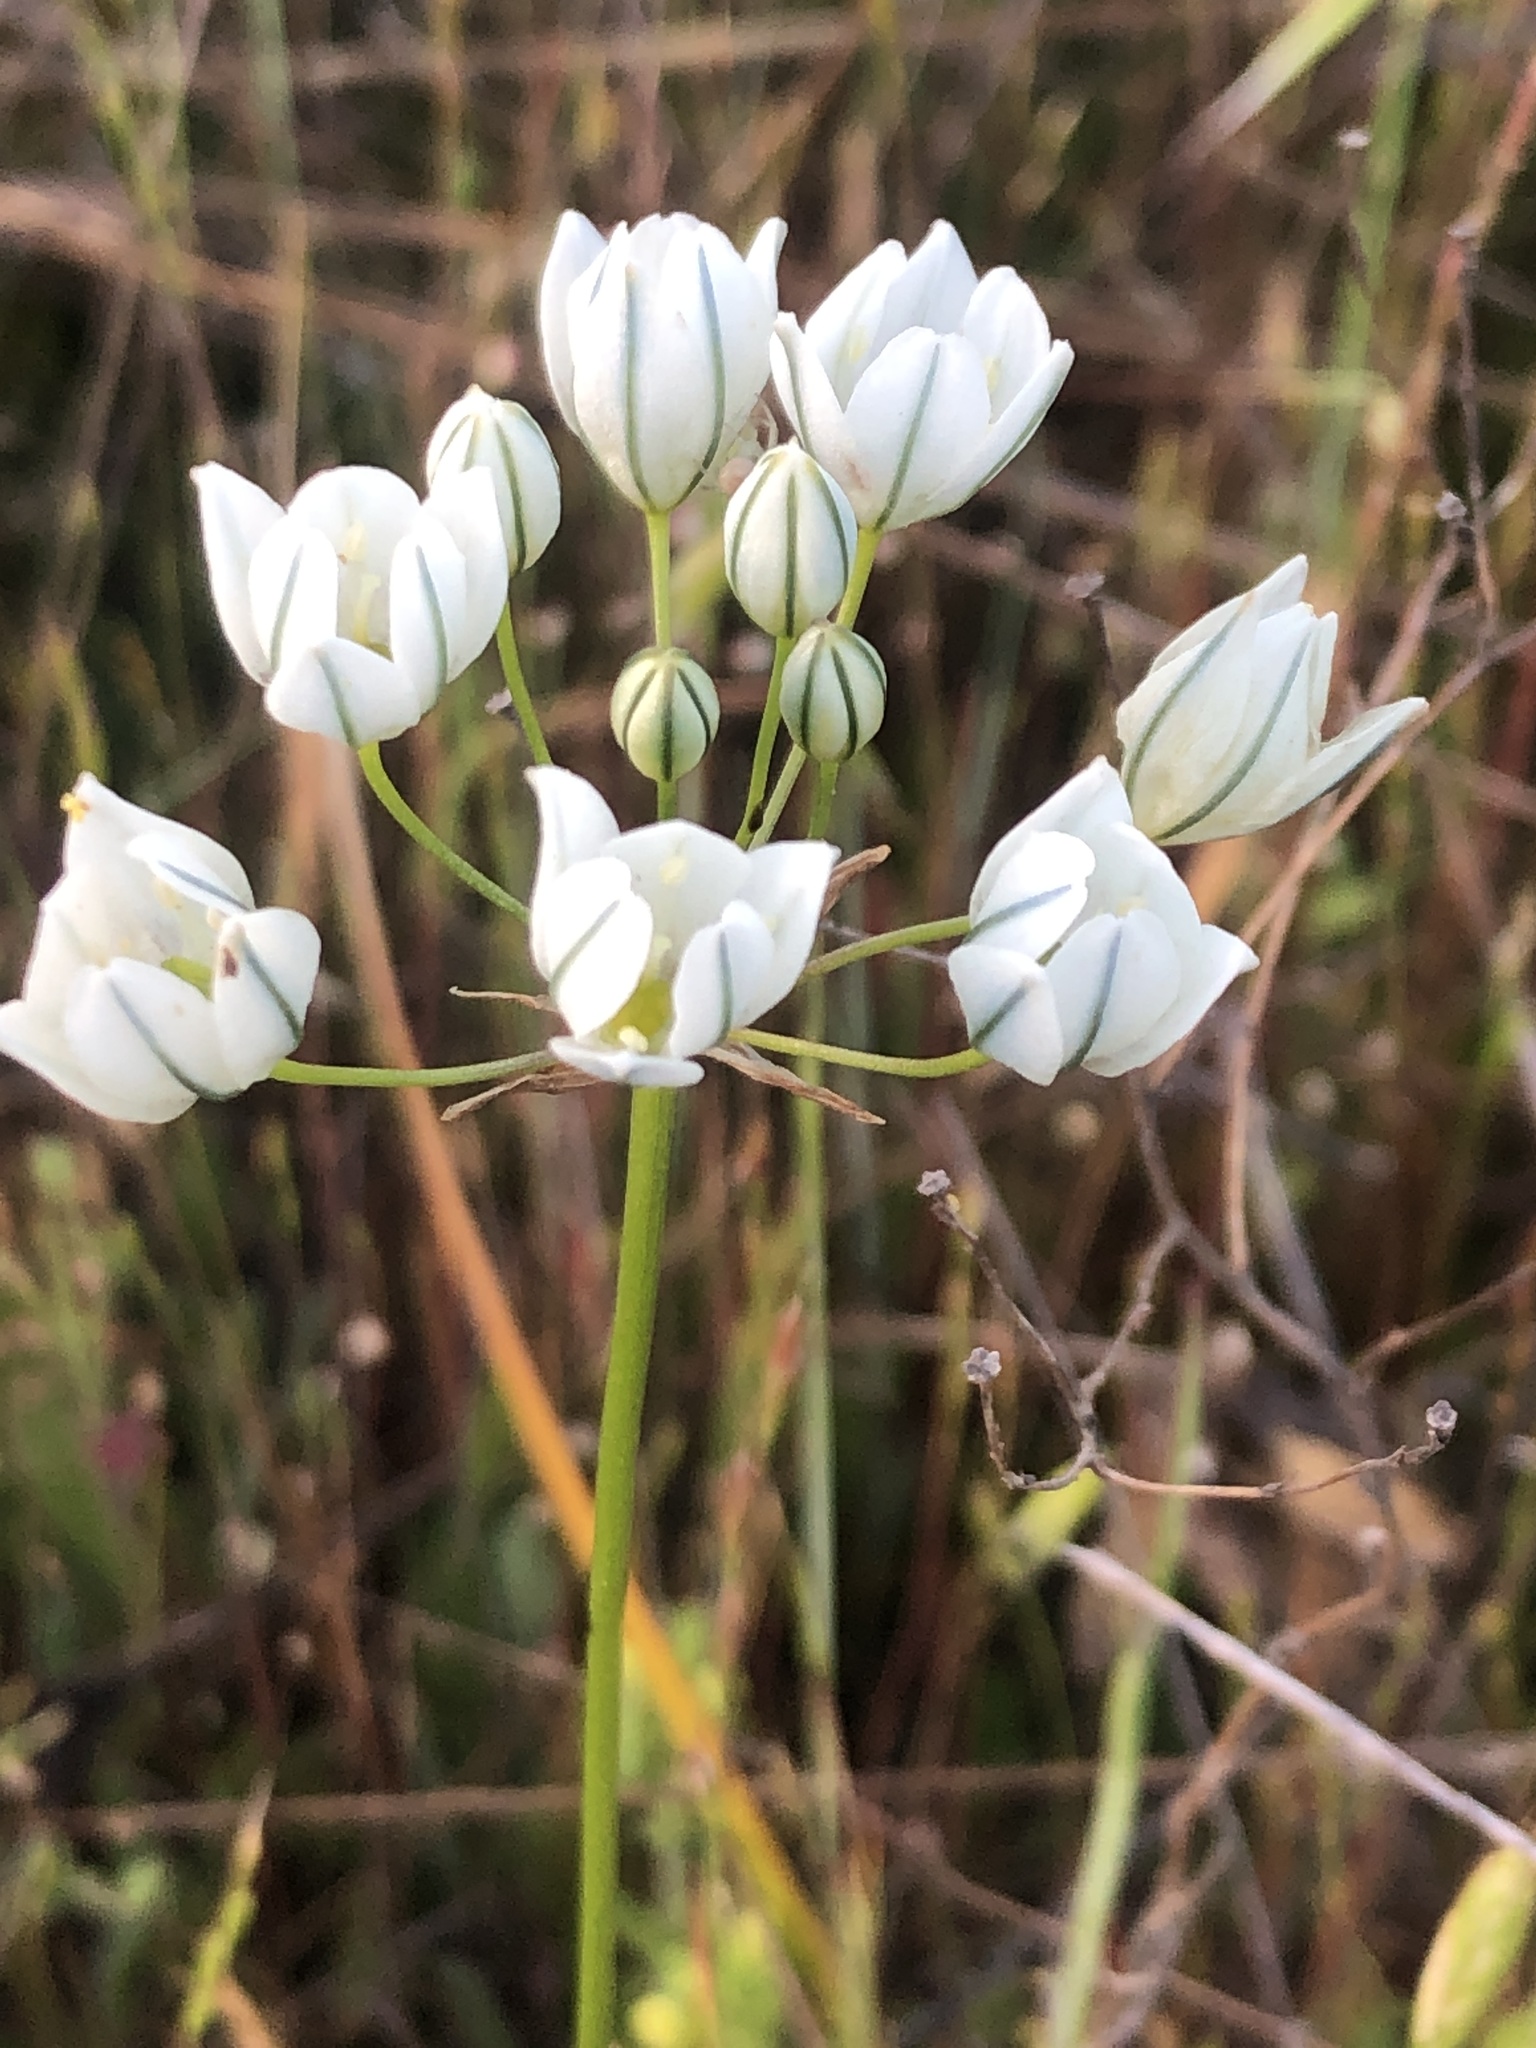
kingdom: Plantae
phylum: Tracheophyta
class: Liliopsida
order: Asparagales
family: Asparagaceae
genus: Triteleia
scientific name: Triteleia hyacinthina
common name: White brodiaea
